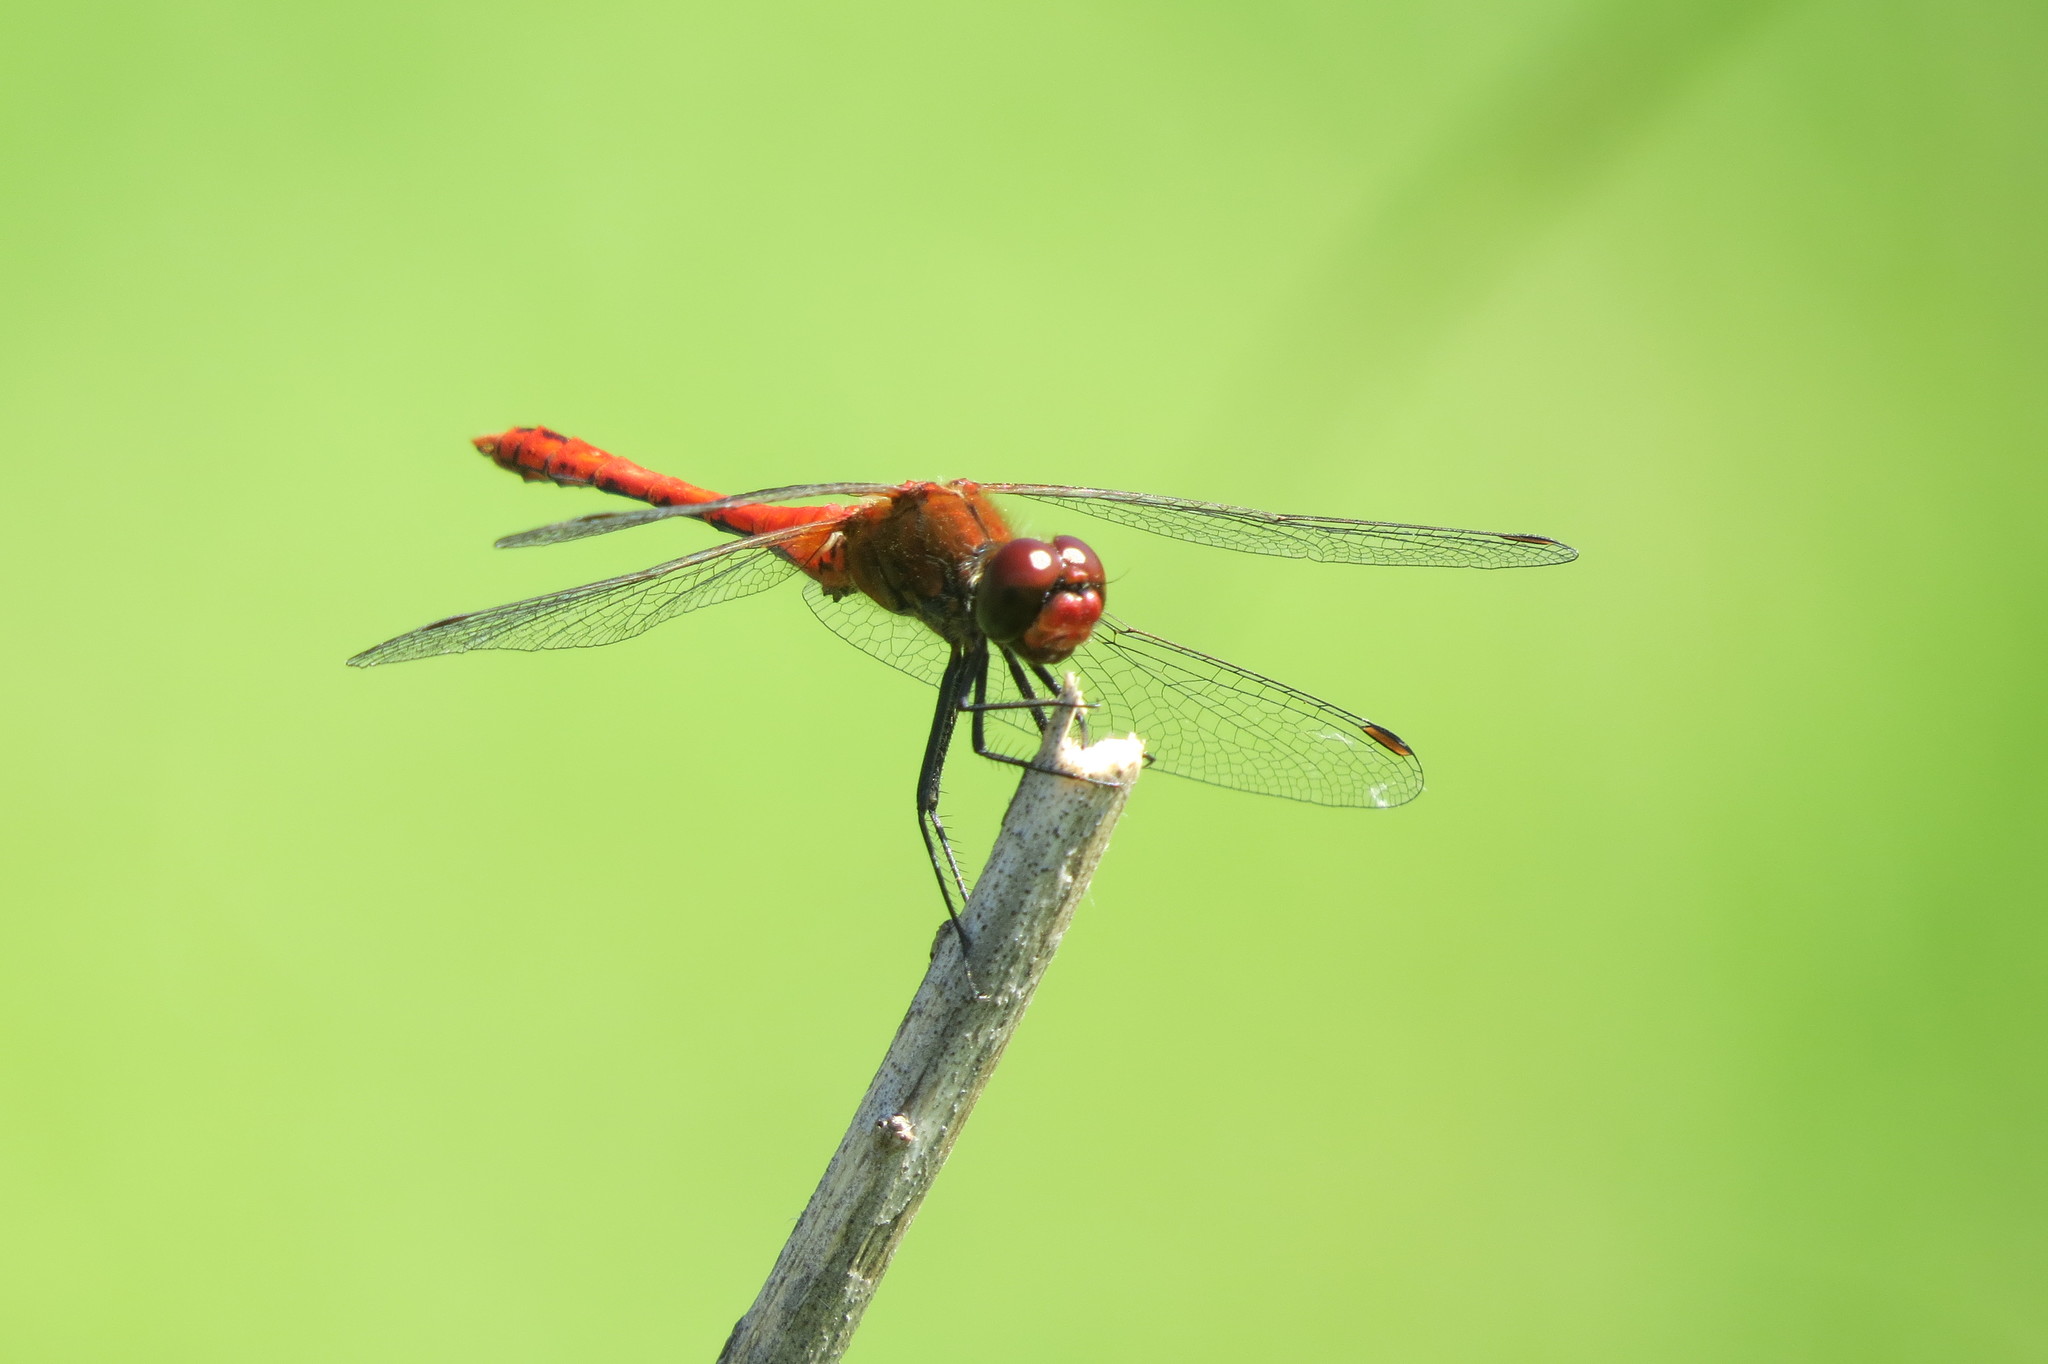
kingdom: Animalia
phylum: Arthropoda
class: Insecta
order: Odonata
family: Libellulidae
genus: Sympetrum
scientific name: Sympetrum sanguineum
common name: Ruddy darter
